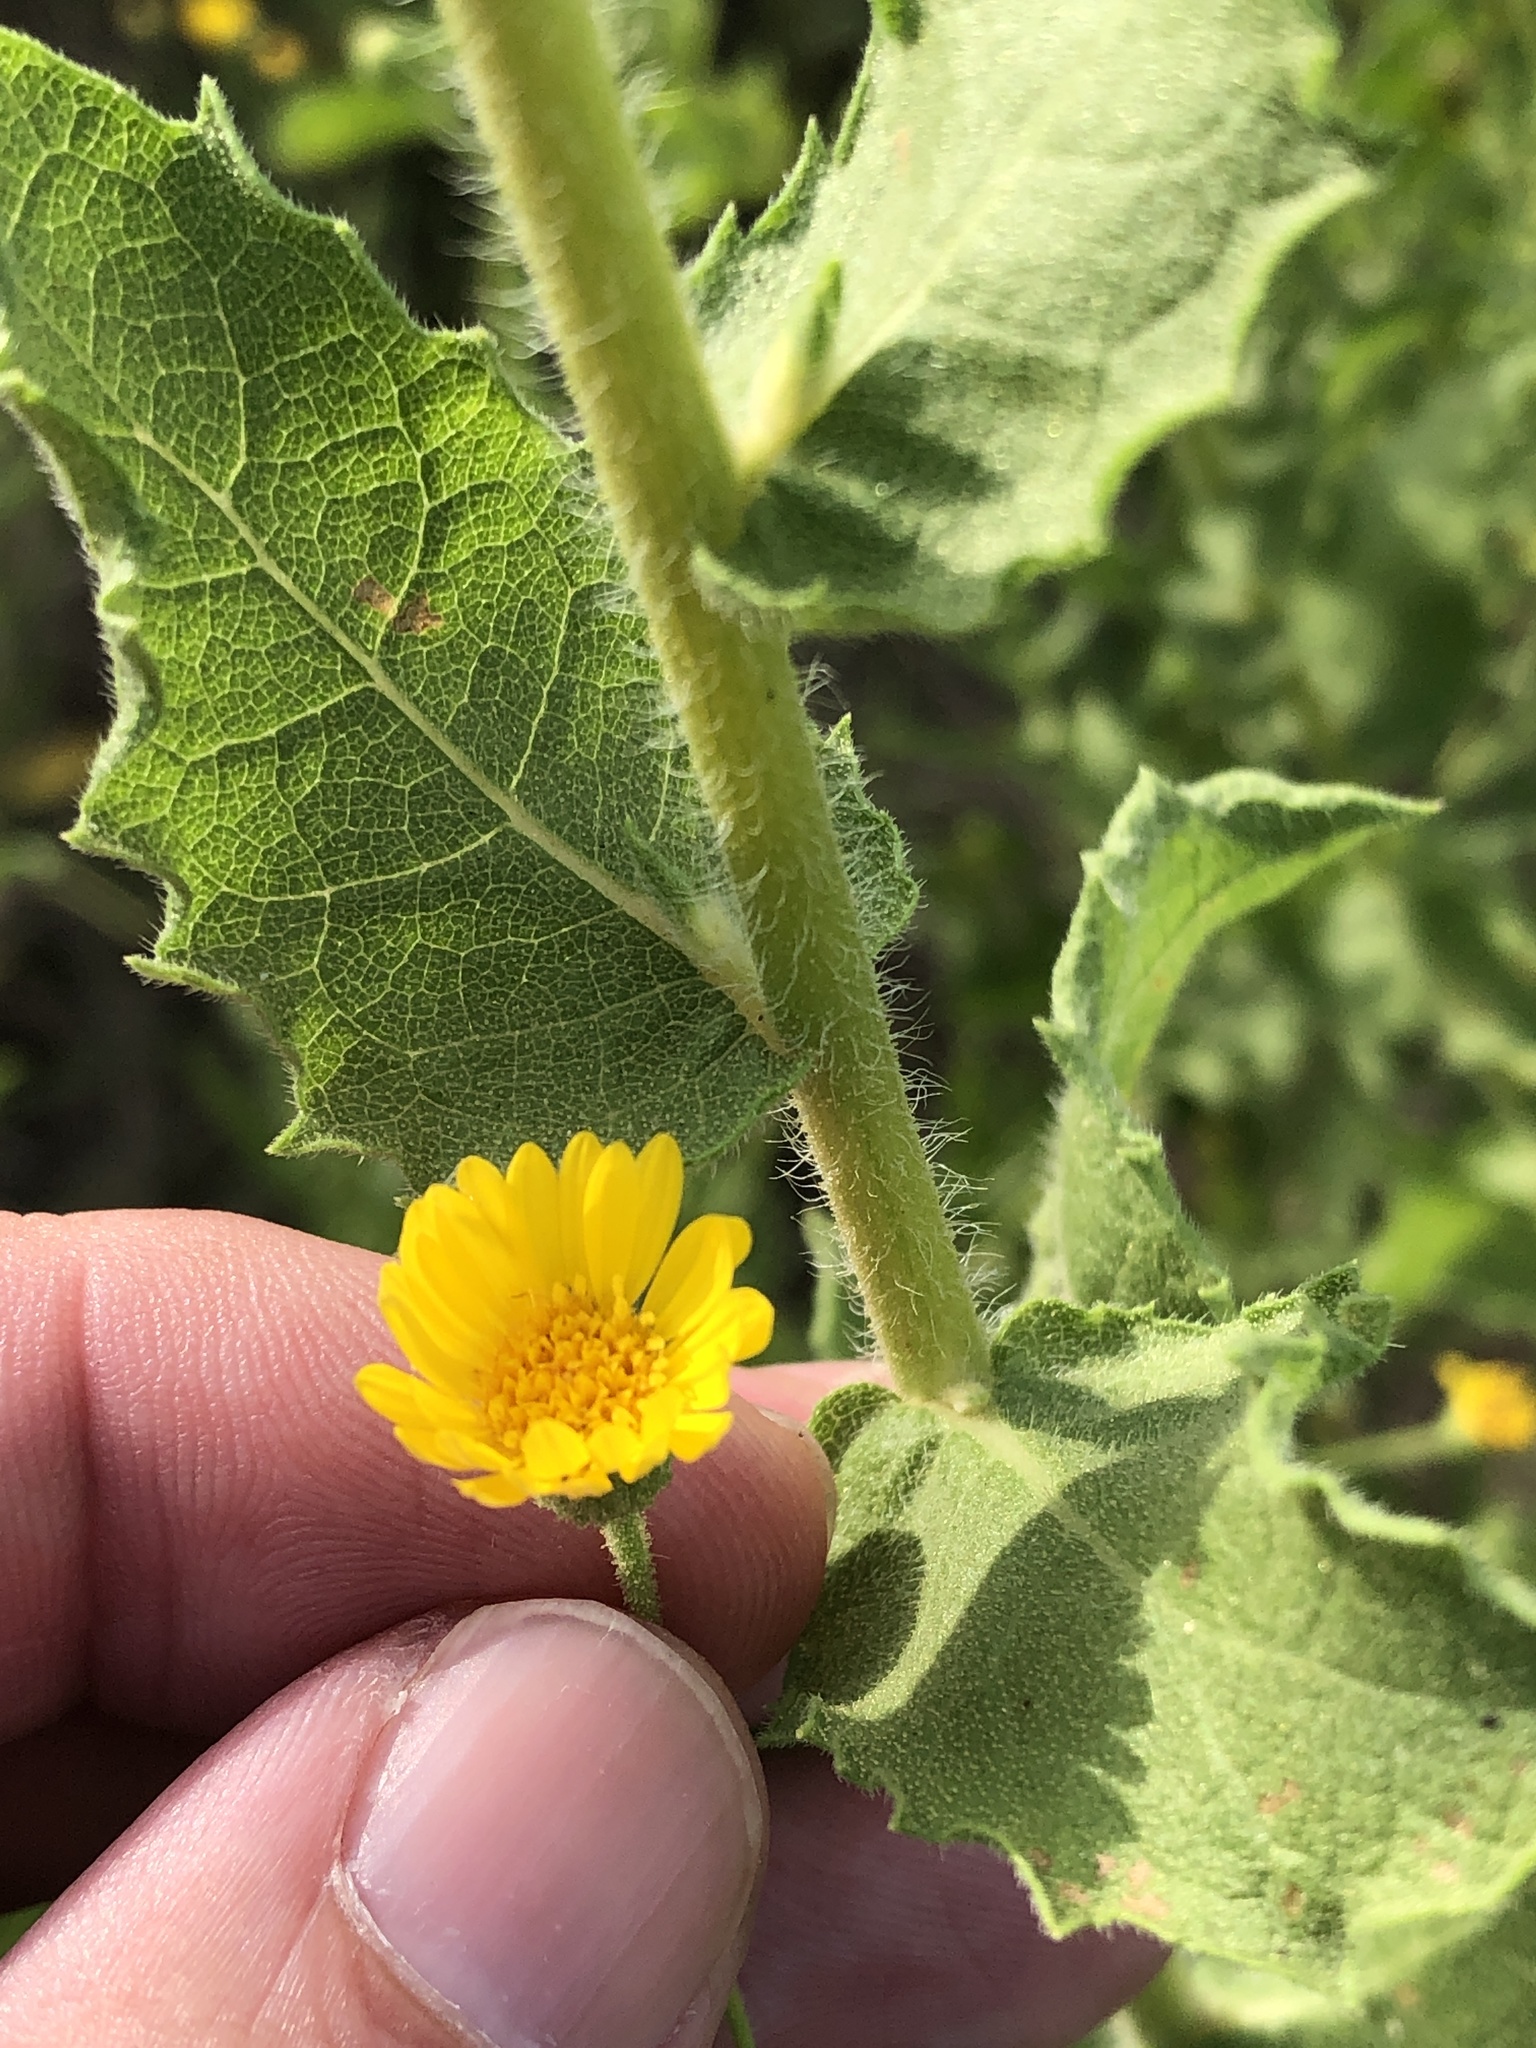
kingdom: Plantae
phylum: Tracheophyta
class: Magnoliopsida
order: Asterales
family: Asteraceae
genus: Heterotheca
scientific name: Heterotheca subaxillaris
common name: Camphorweed
